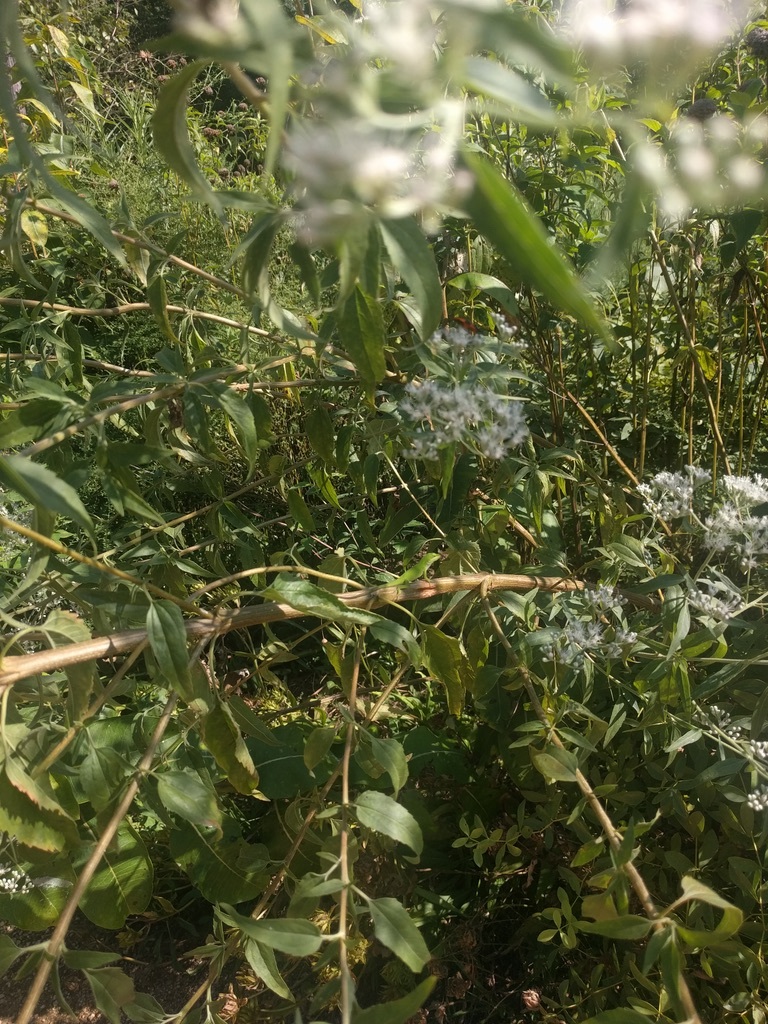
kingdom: Animalia
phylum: Chordata
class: Squamata
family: Dactyloidae
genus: Anolis
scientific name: Anolis carolinensis
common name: Green anole
